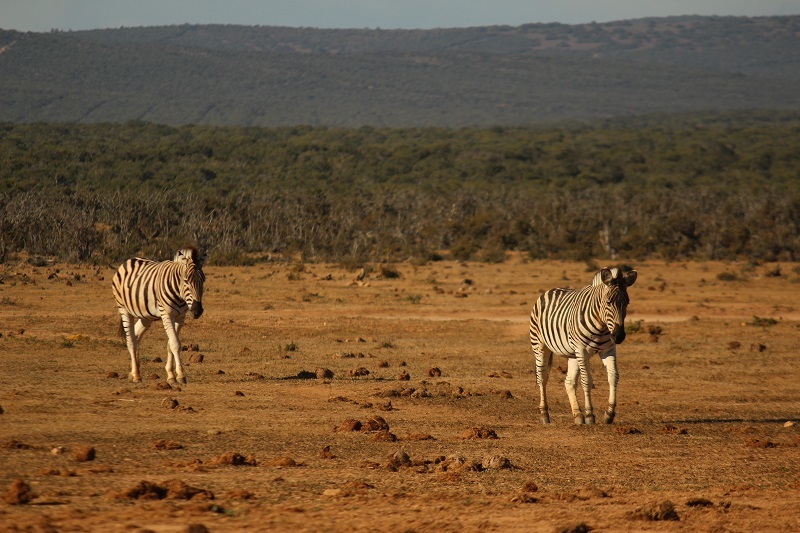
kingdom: Animalia
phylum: Chordata
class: Mammalia
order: Perissodactyla
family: Equidae
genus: Equus
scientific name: Equus quagga
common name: Plains zebra
